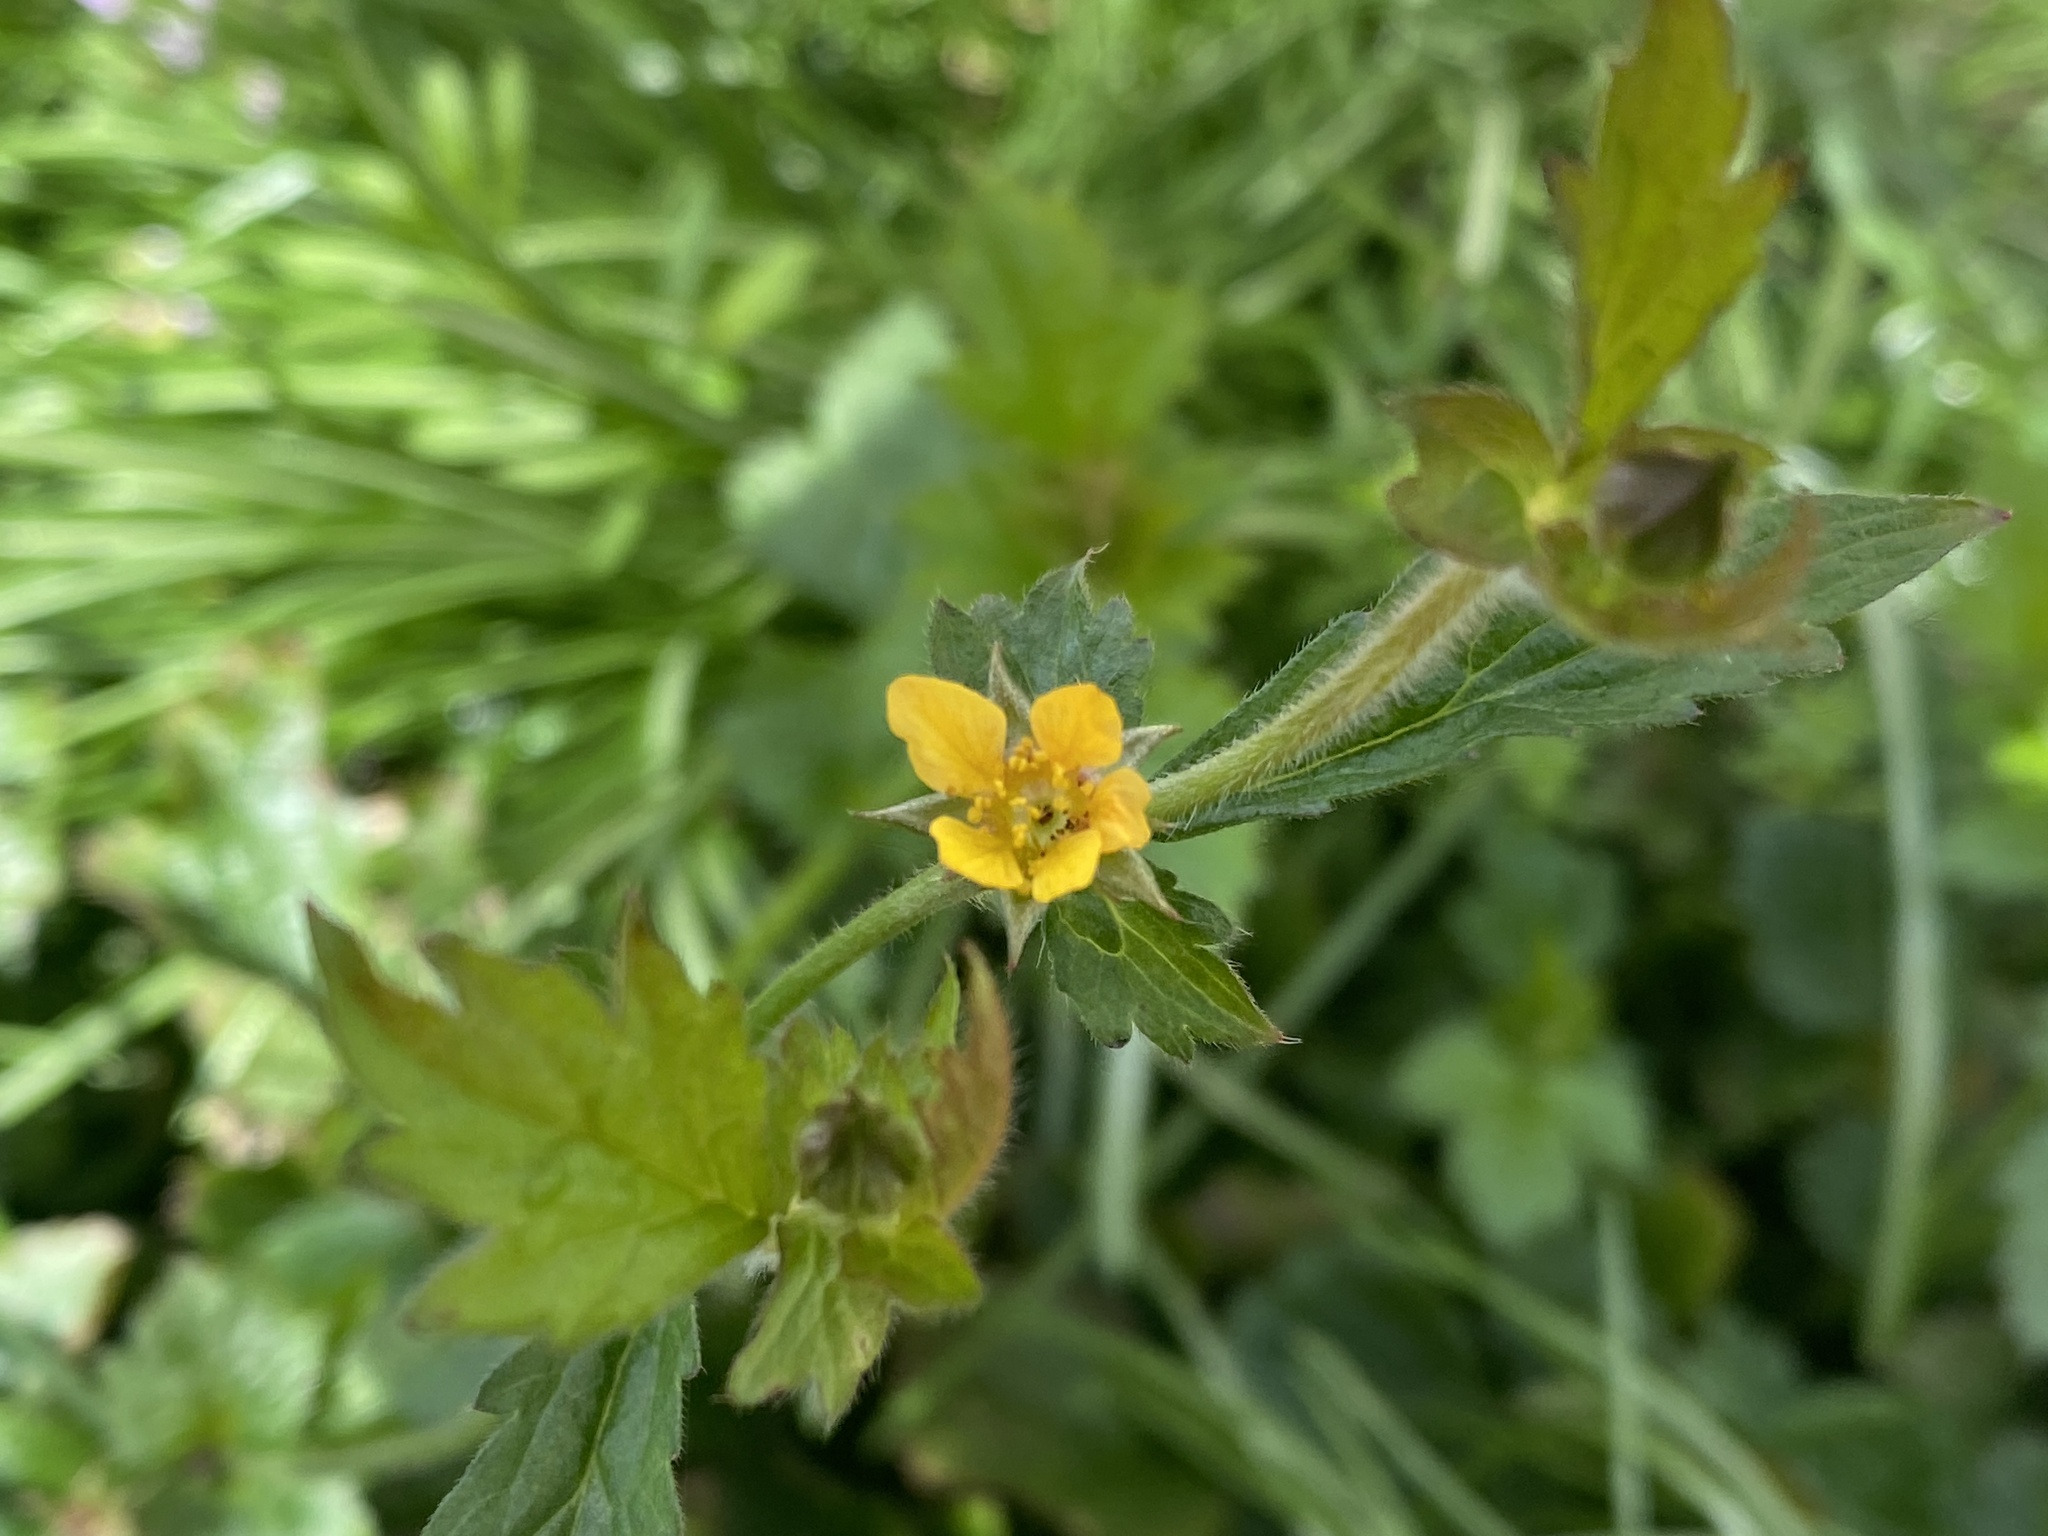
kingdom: Plantae
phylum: Tracheophyta
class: Magnoliopsida
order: Rosales
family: Rosaceae
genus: Geum
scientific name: Geum urbanum
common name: Wood avens
